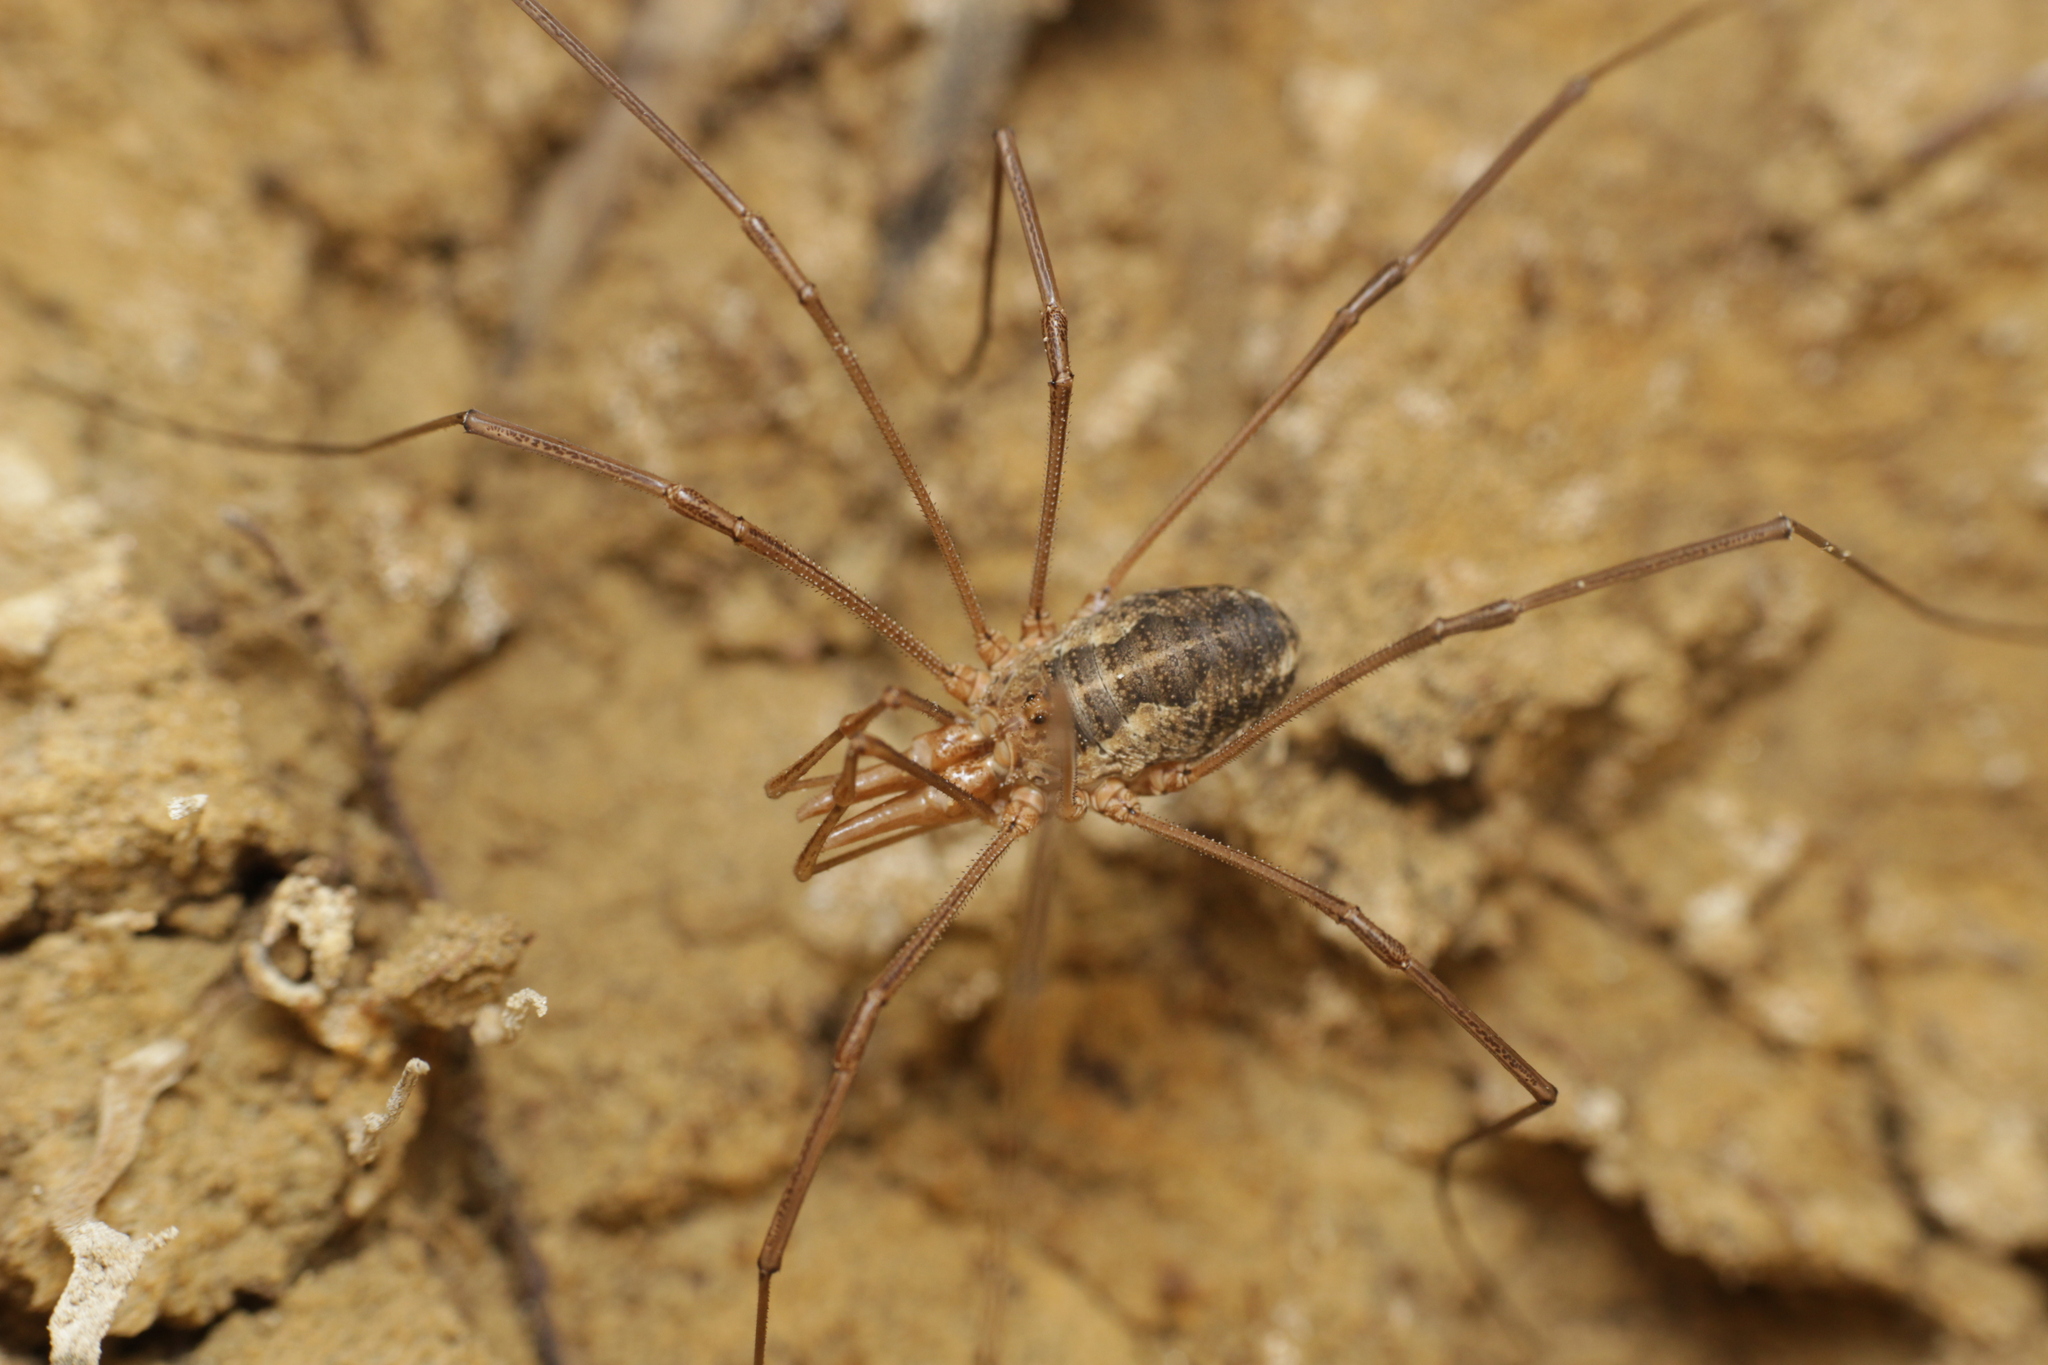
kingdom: Animalia
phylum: Arthropoda
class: Arachnida
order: Opiliones
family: Phalangiidae
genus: Phalangium
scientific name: Phalangium opilio
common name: Daddy longleg
